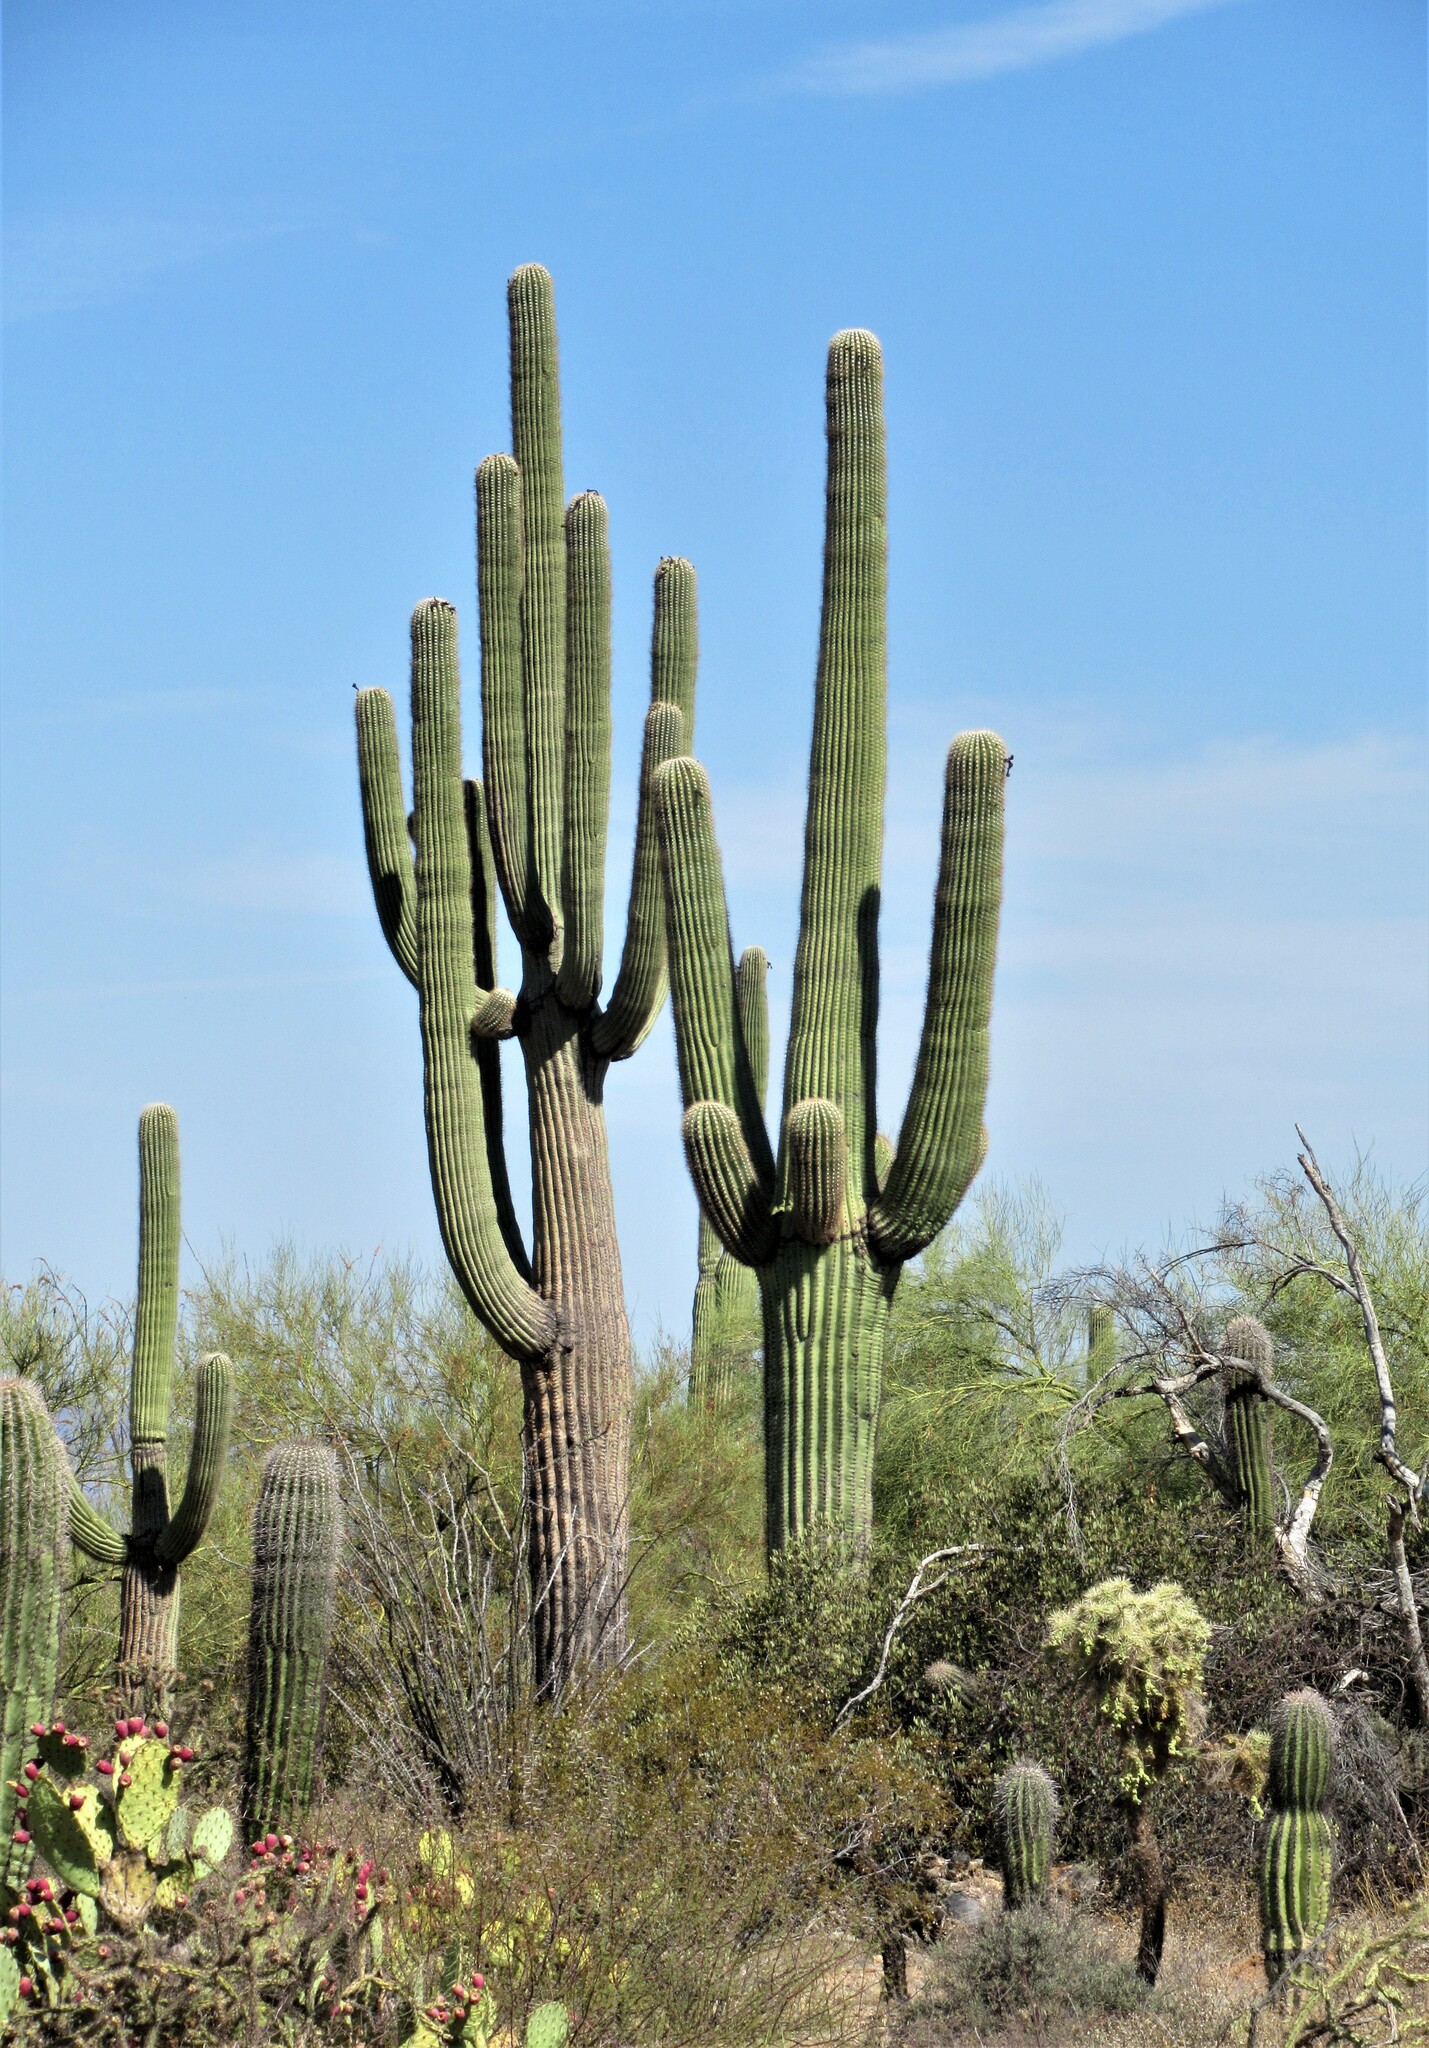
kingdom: Plantae
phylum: Tracheophyta
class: Magnoliopsida
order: Caryophyllales
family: Cactaceae
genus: Carnegiea
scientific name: Carnegiea gigantea
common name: Saguaro
